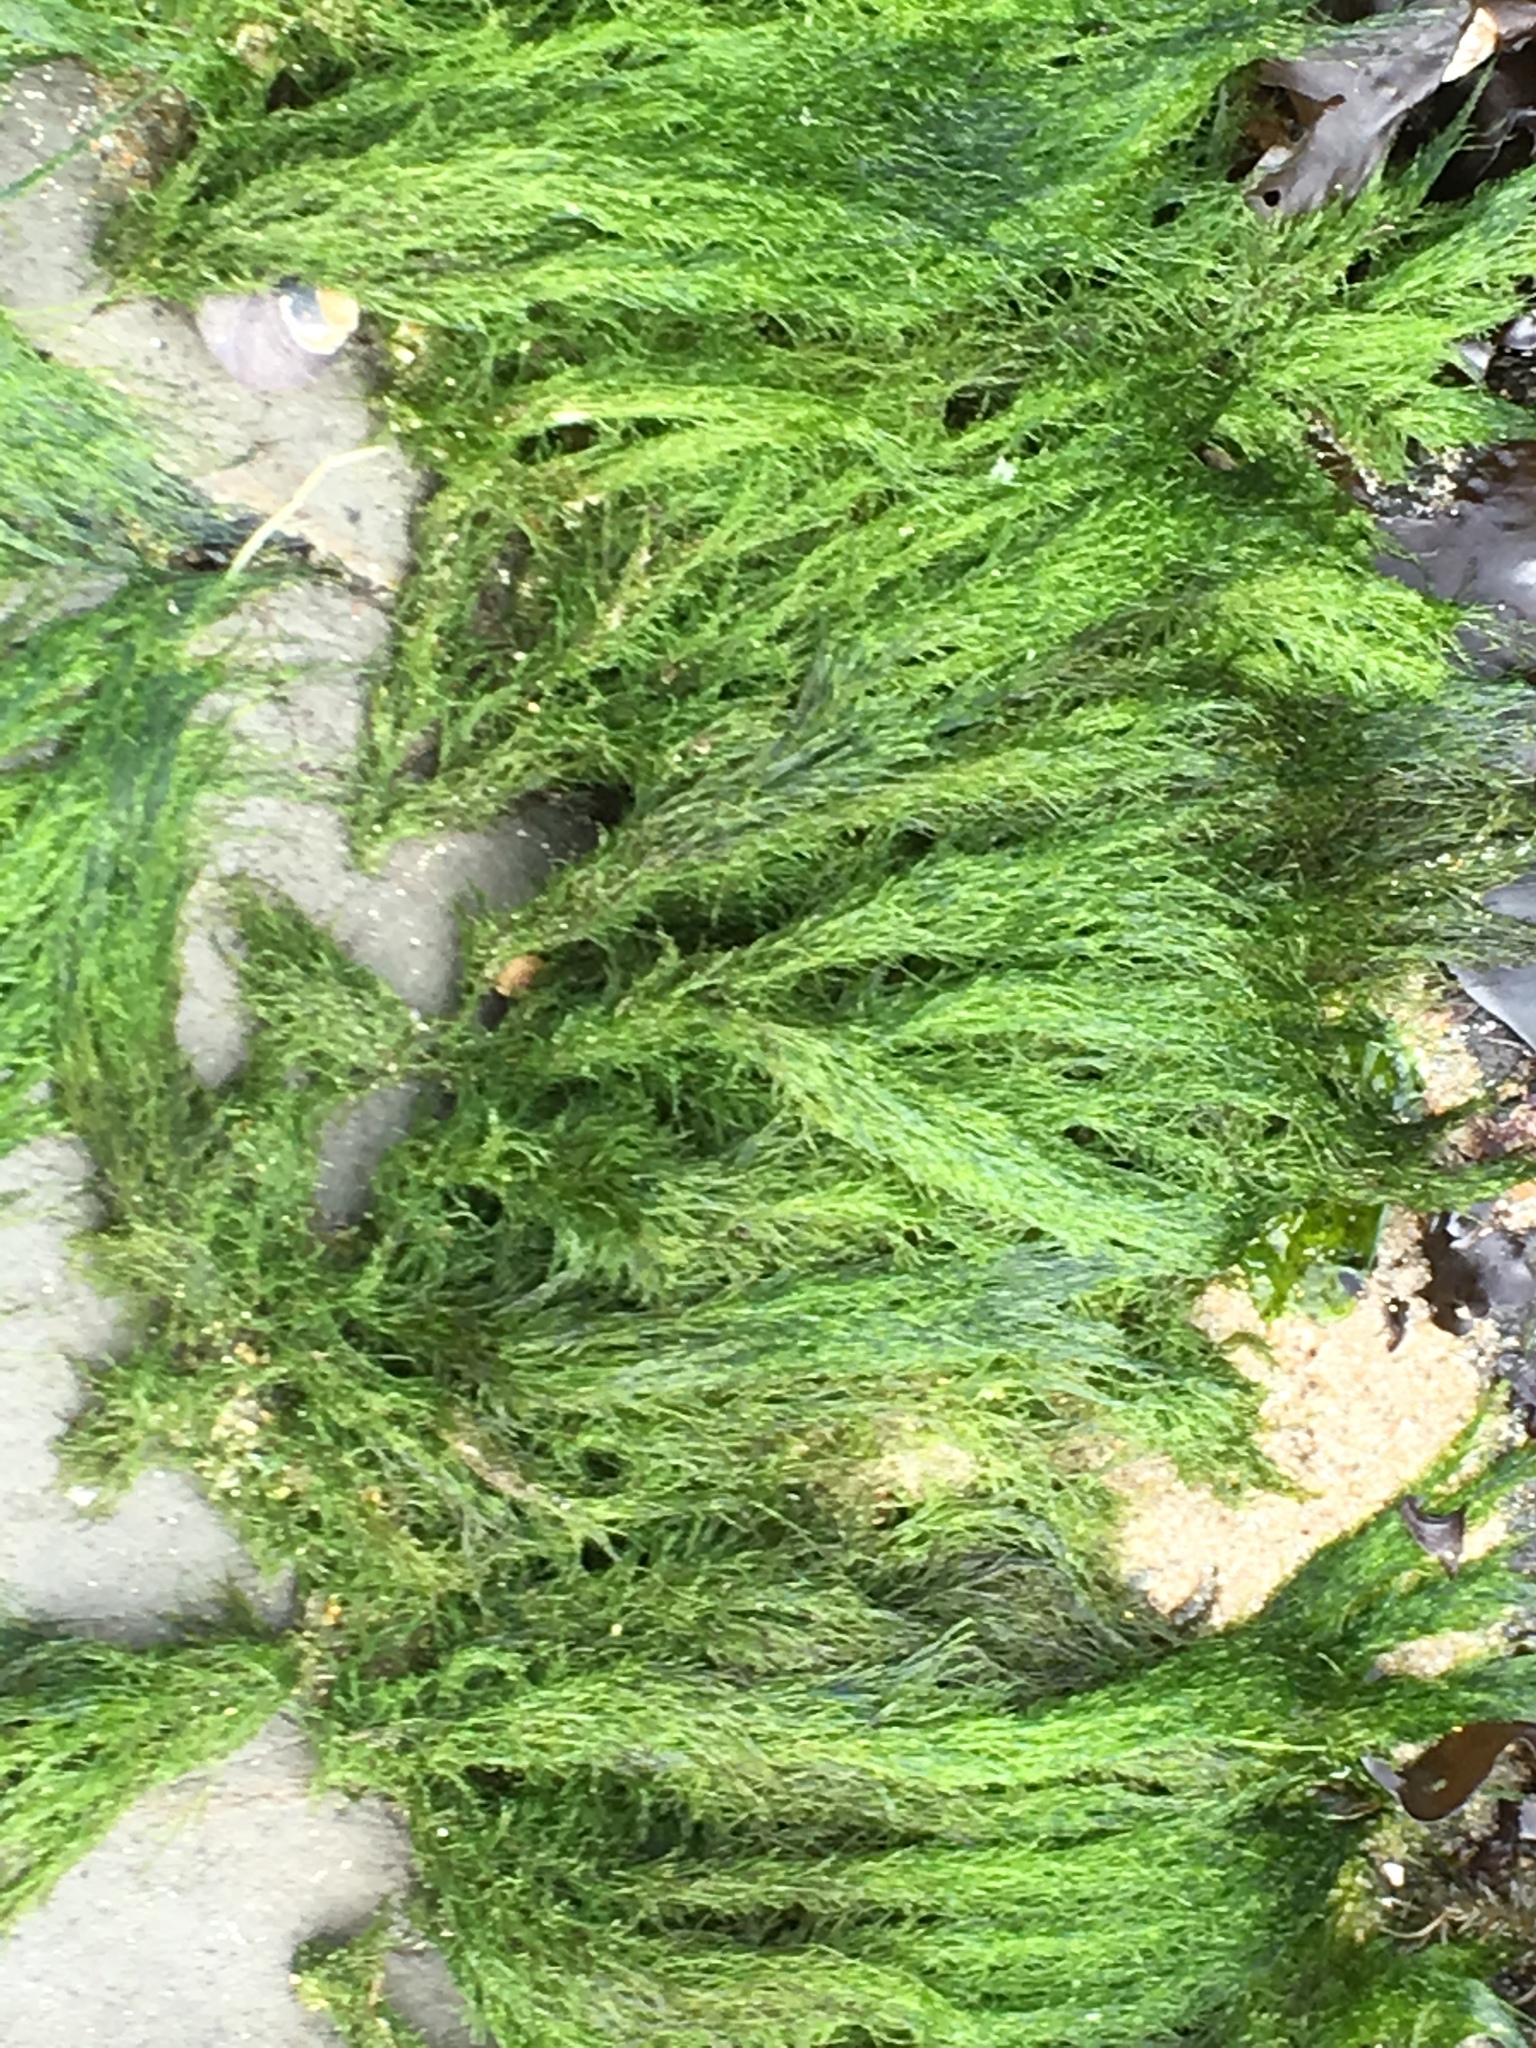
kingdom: Plantae
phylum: Chlorophyta
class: Ulvophyceae
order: Ulotrichales
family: Ulotrichaceae
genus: Acrosiphonia
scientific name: Acrosiphonia
